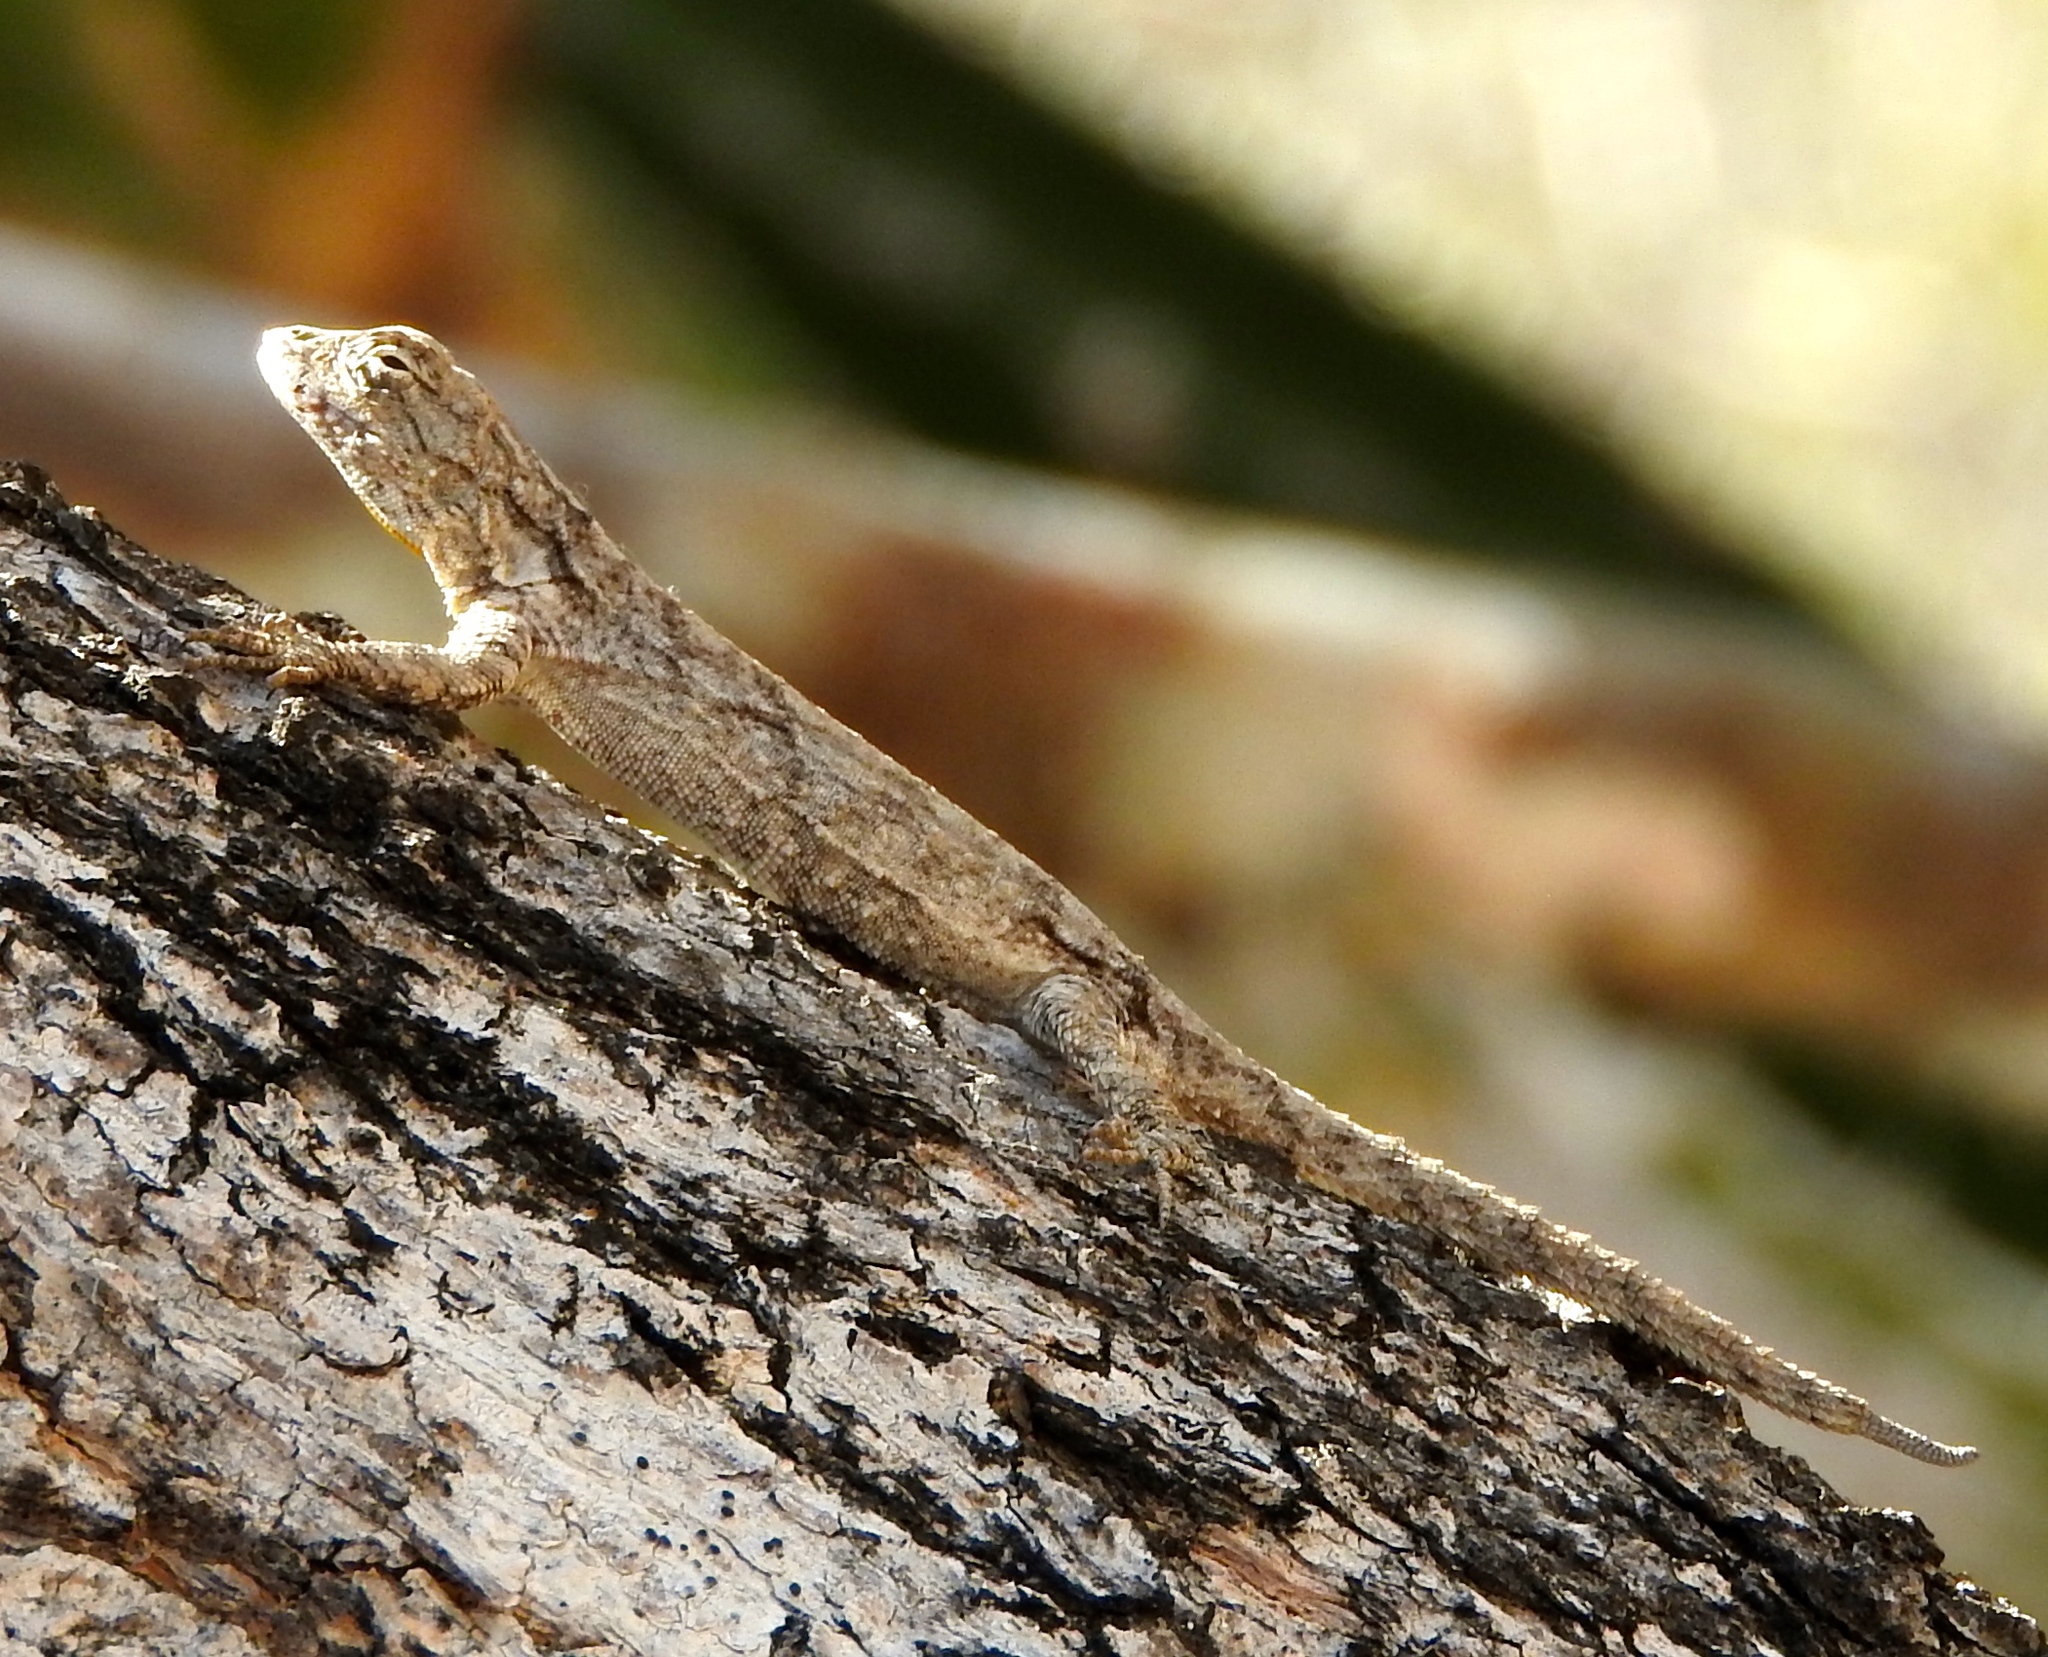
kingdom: Animalia
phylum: Chordata
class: Squamata
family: Phrynosomatidae
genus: Urosaurus
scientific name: Urosaurus bicarinatus
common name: Tropical tree lizard
